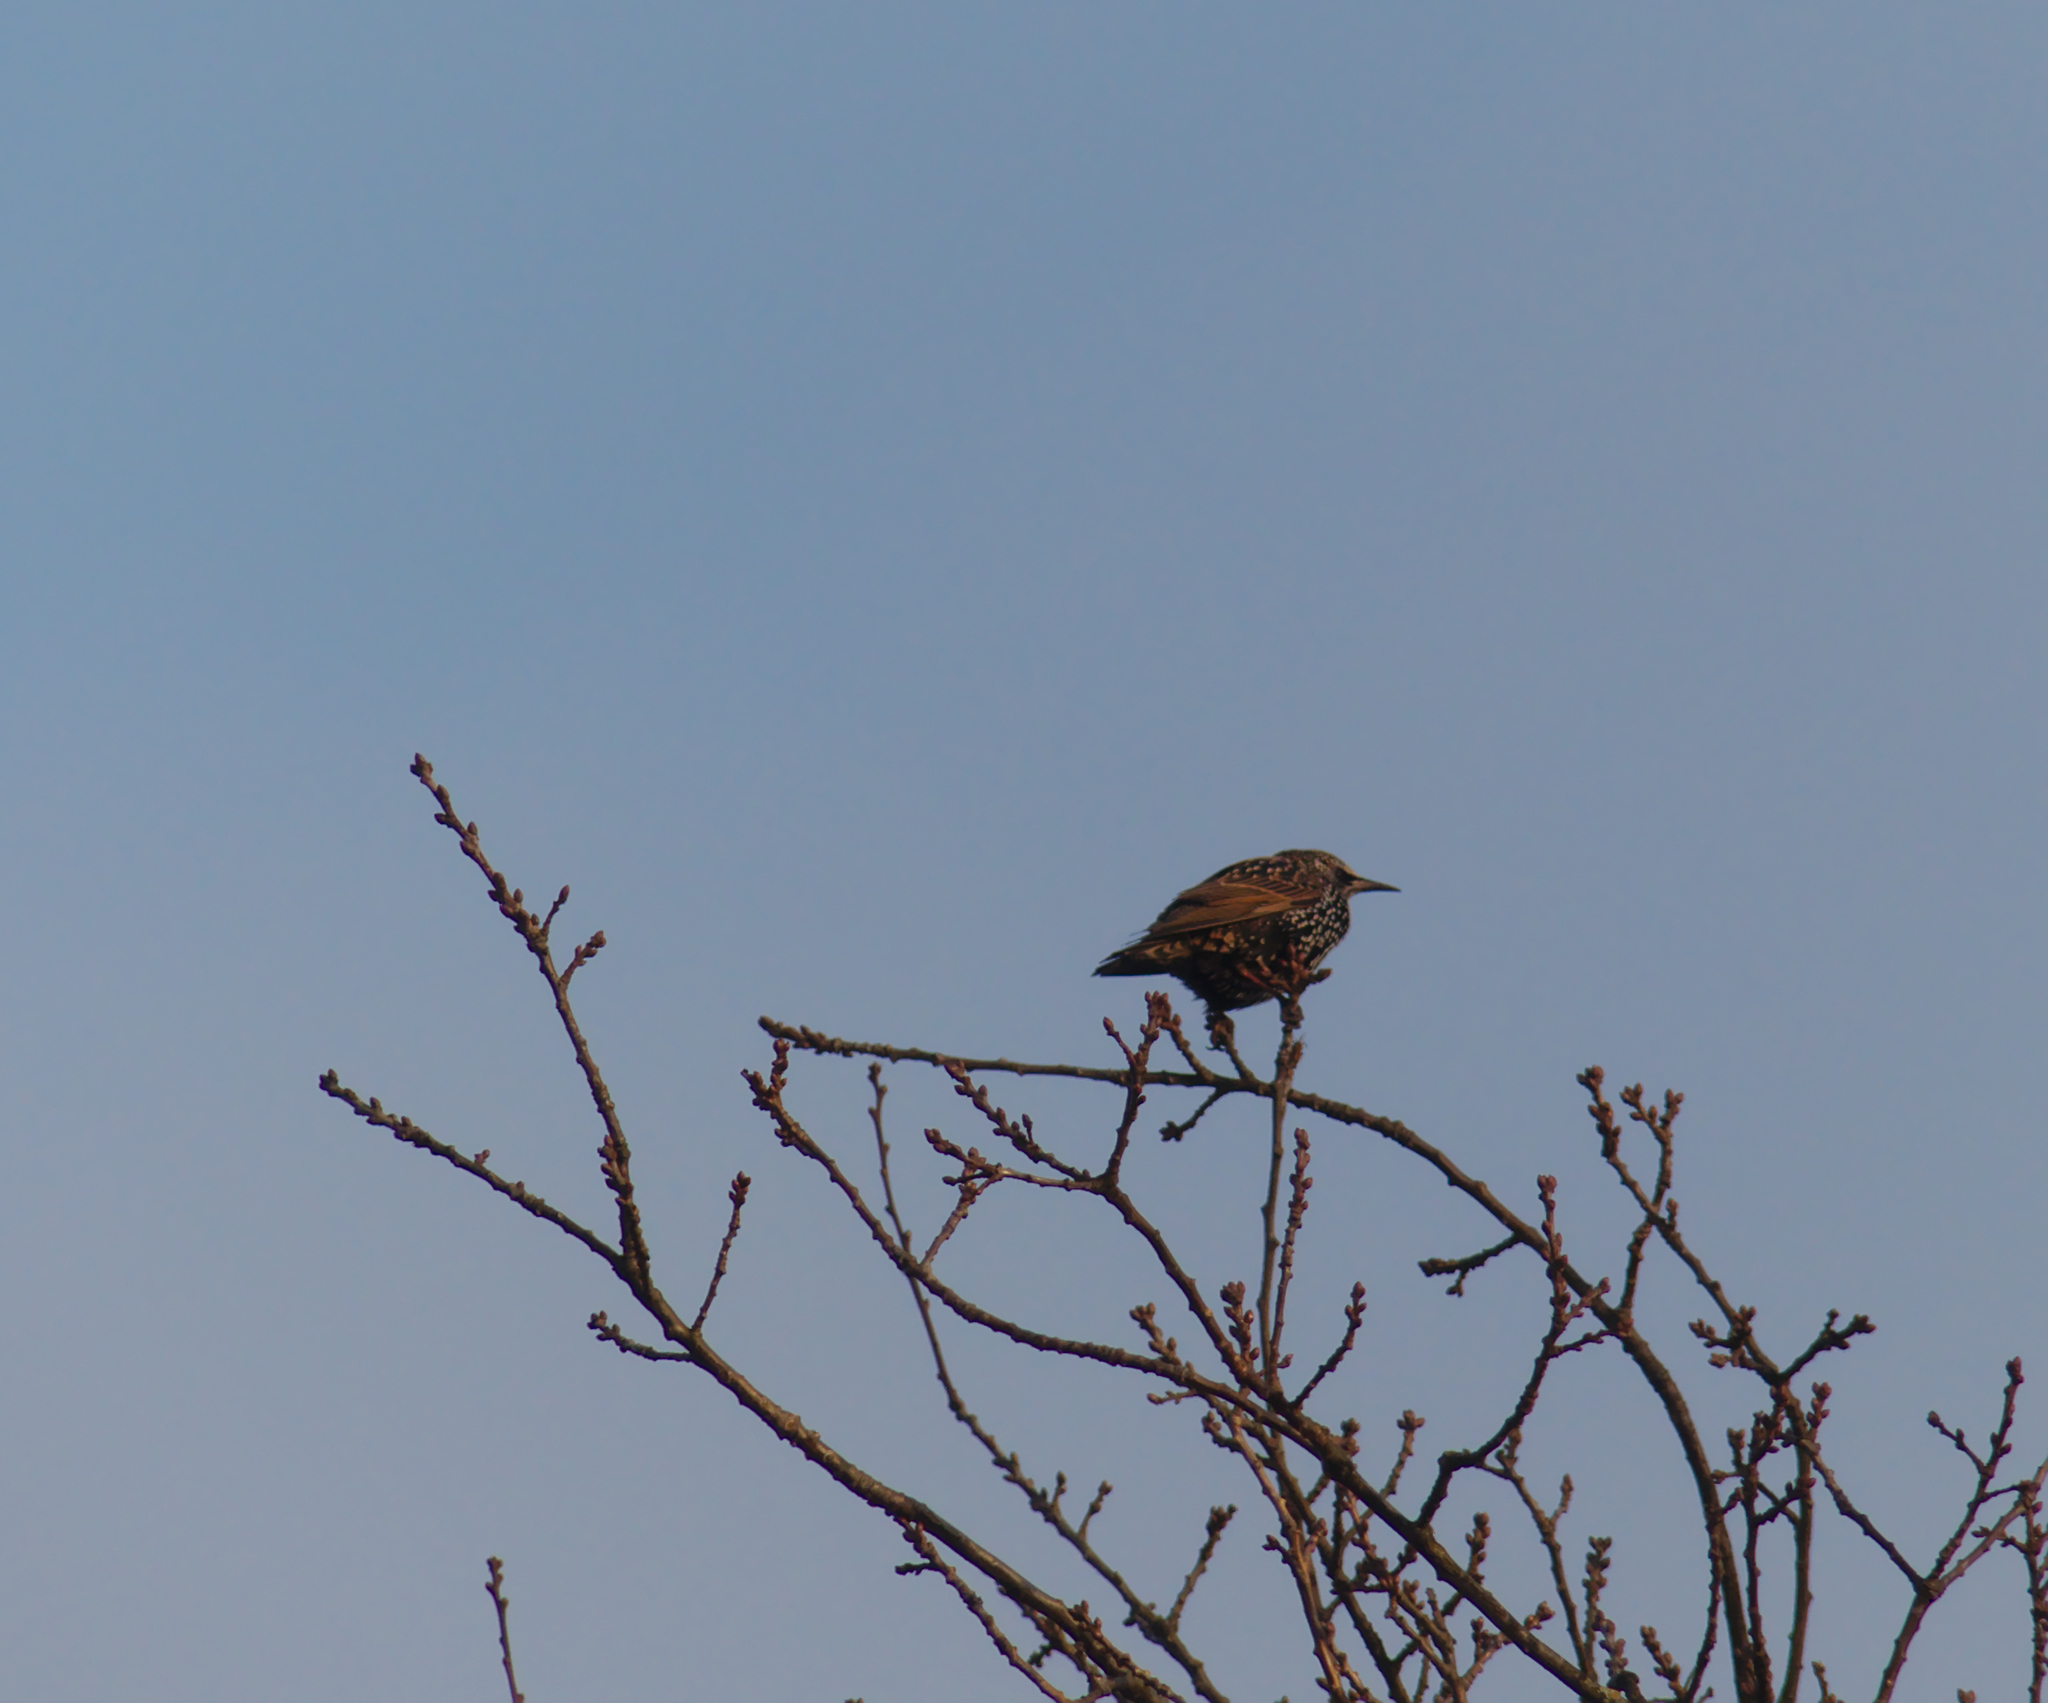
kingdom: Animalia
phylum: Chordata
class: Aves
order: Passeriformes
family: Sturnidae
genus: Sturnus
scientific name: Sturnus vulgaris
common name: Common starling
